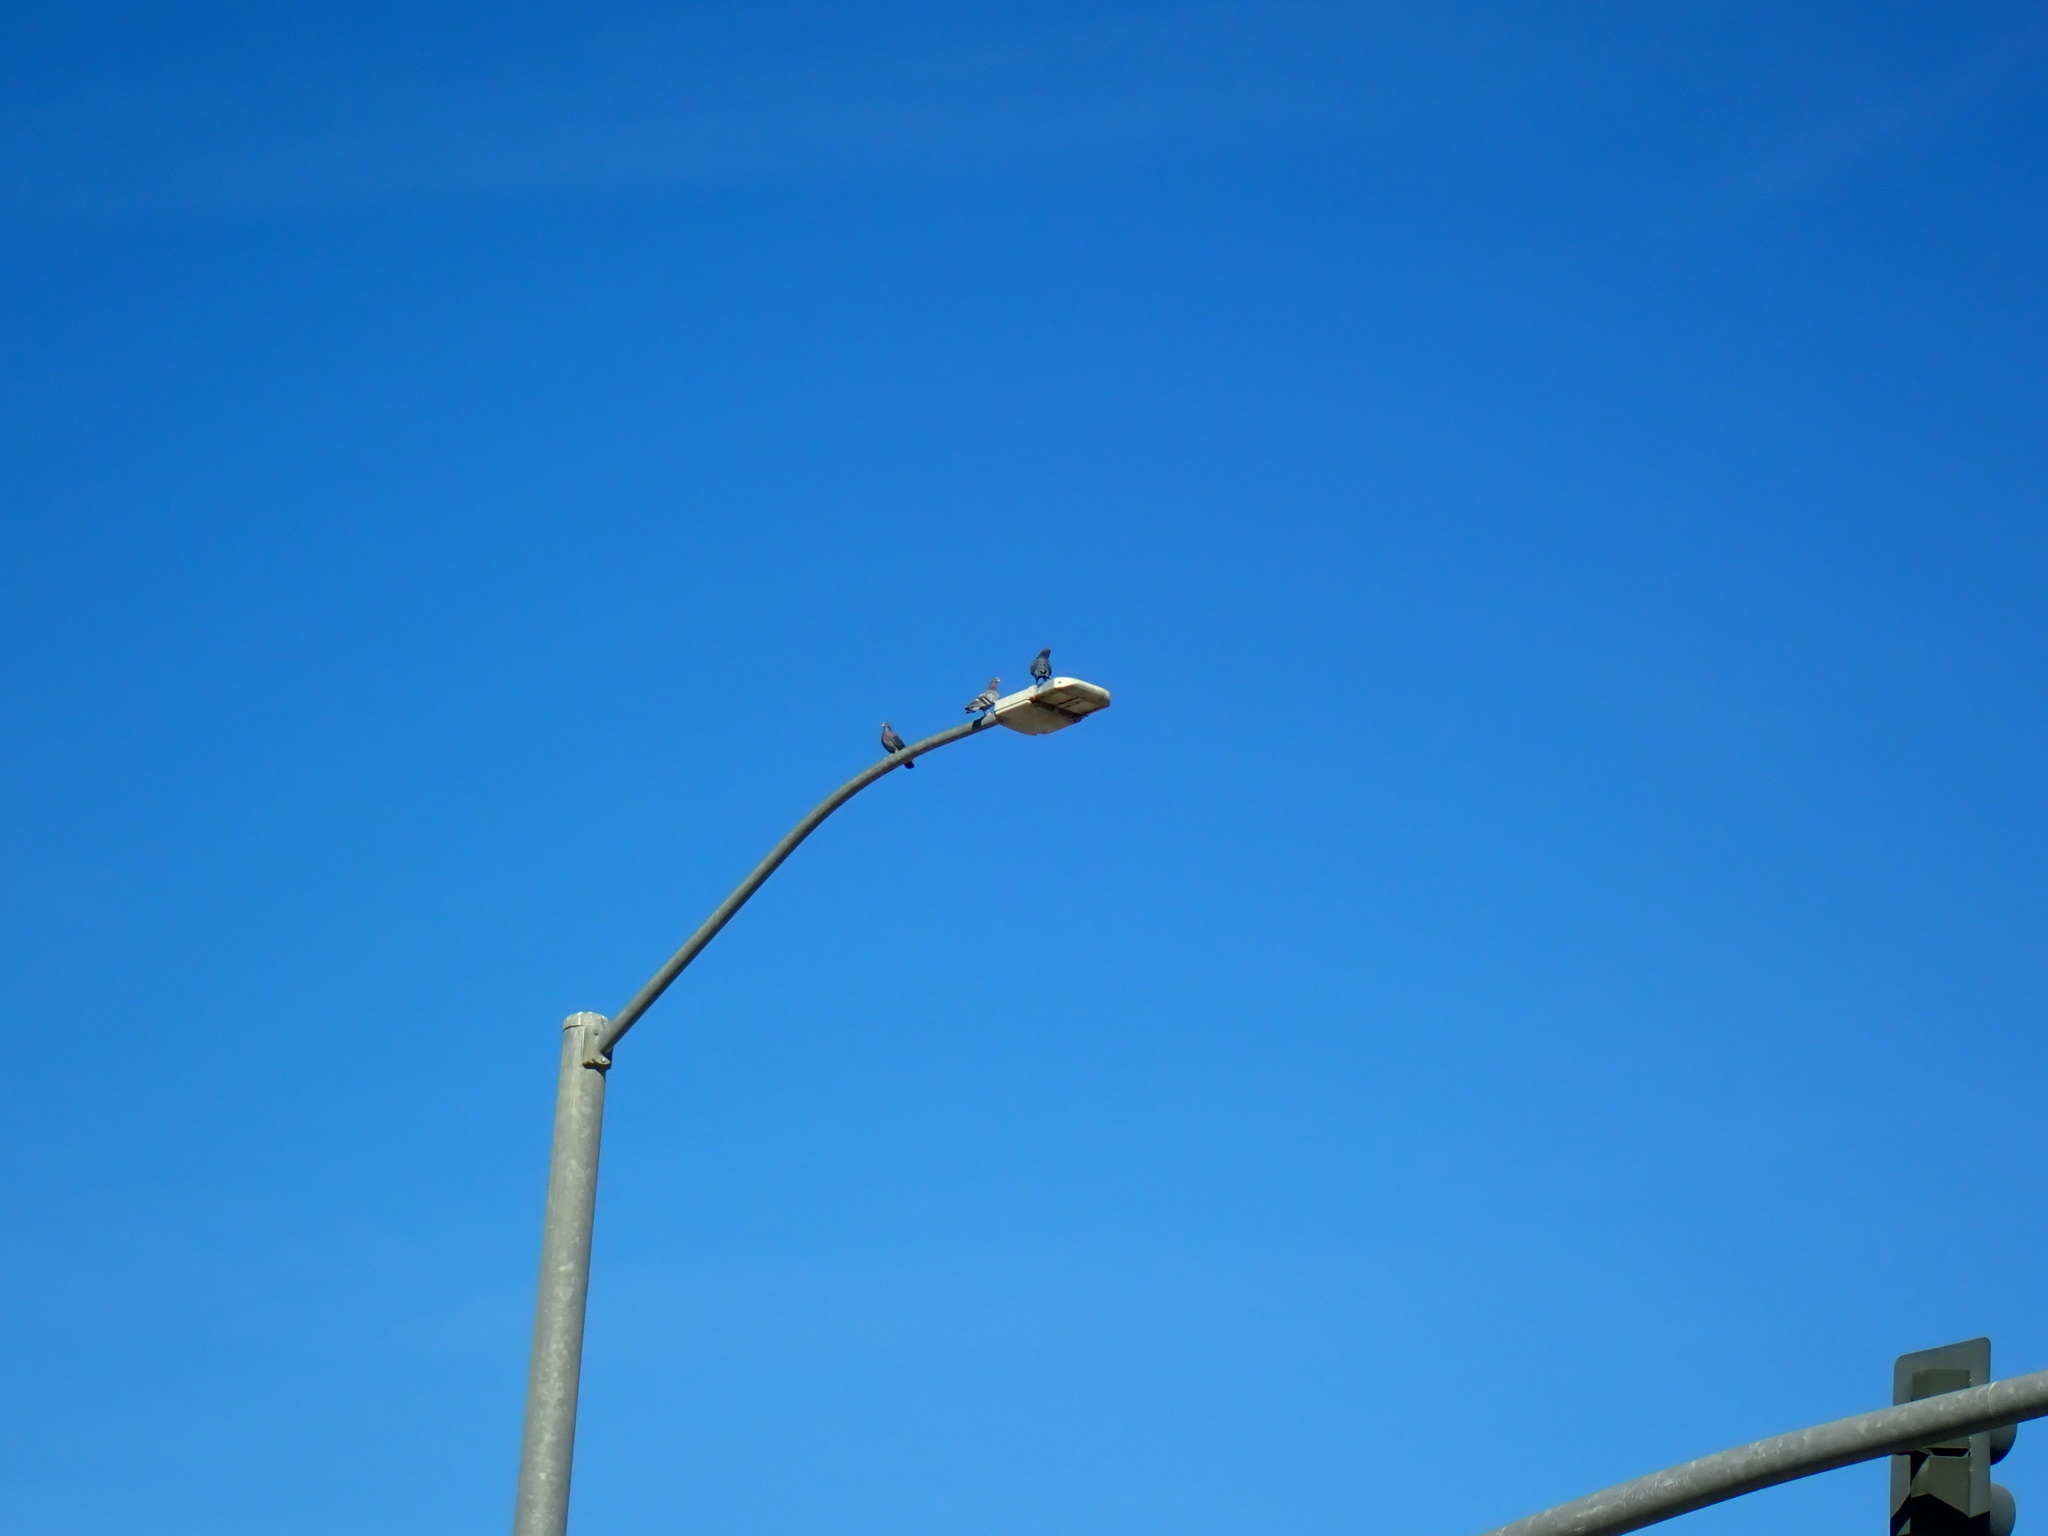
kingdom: Animalia
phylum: Chordata
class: Aves
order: Columbiformes
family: Columbidae
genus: Columba
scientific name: Columba livia
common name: Rock pigeon
